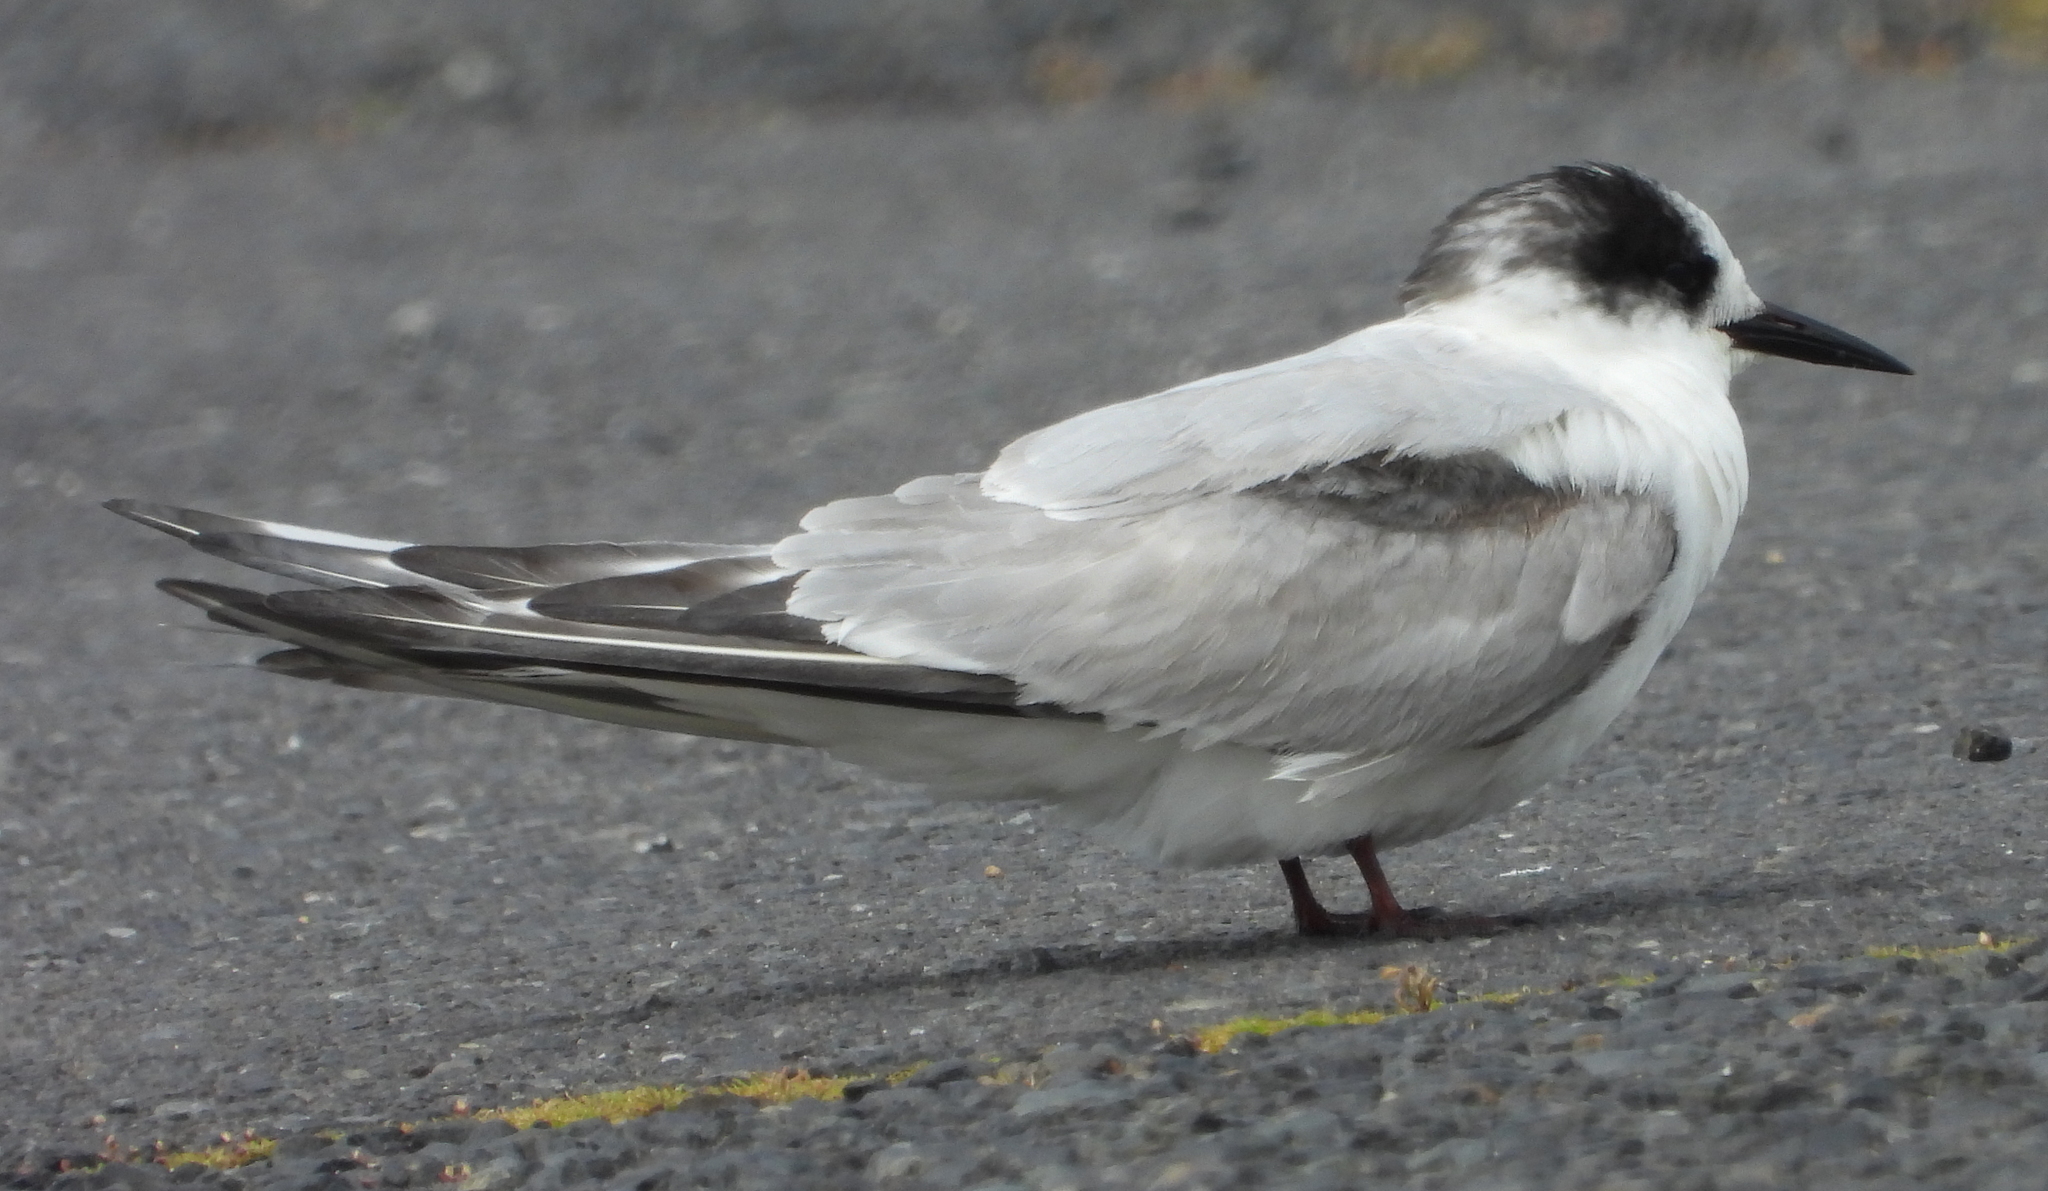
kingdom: Animalia
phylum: Chordata
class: Aves
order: Charadriiformes
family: Laridae
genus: Sterna
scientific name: Sterna paradisaea
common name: Arctic tern
